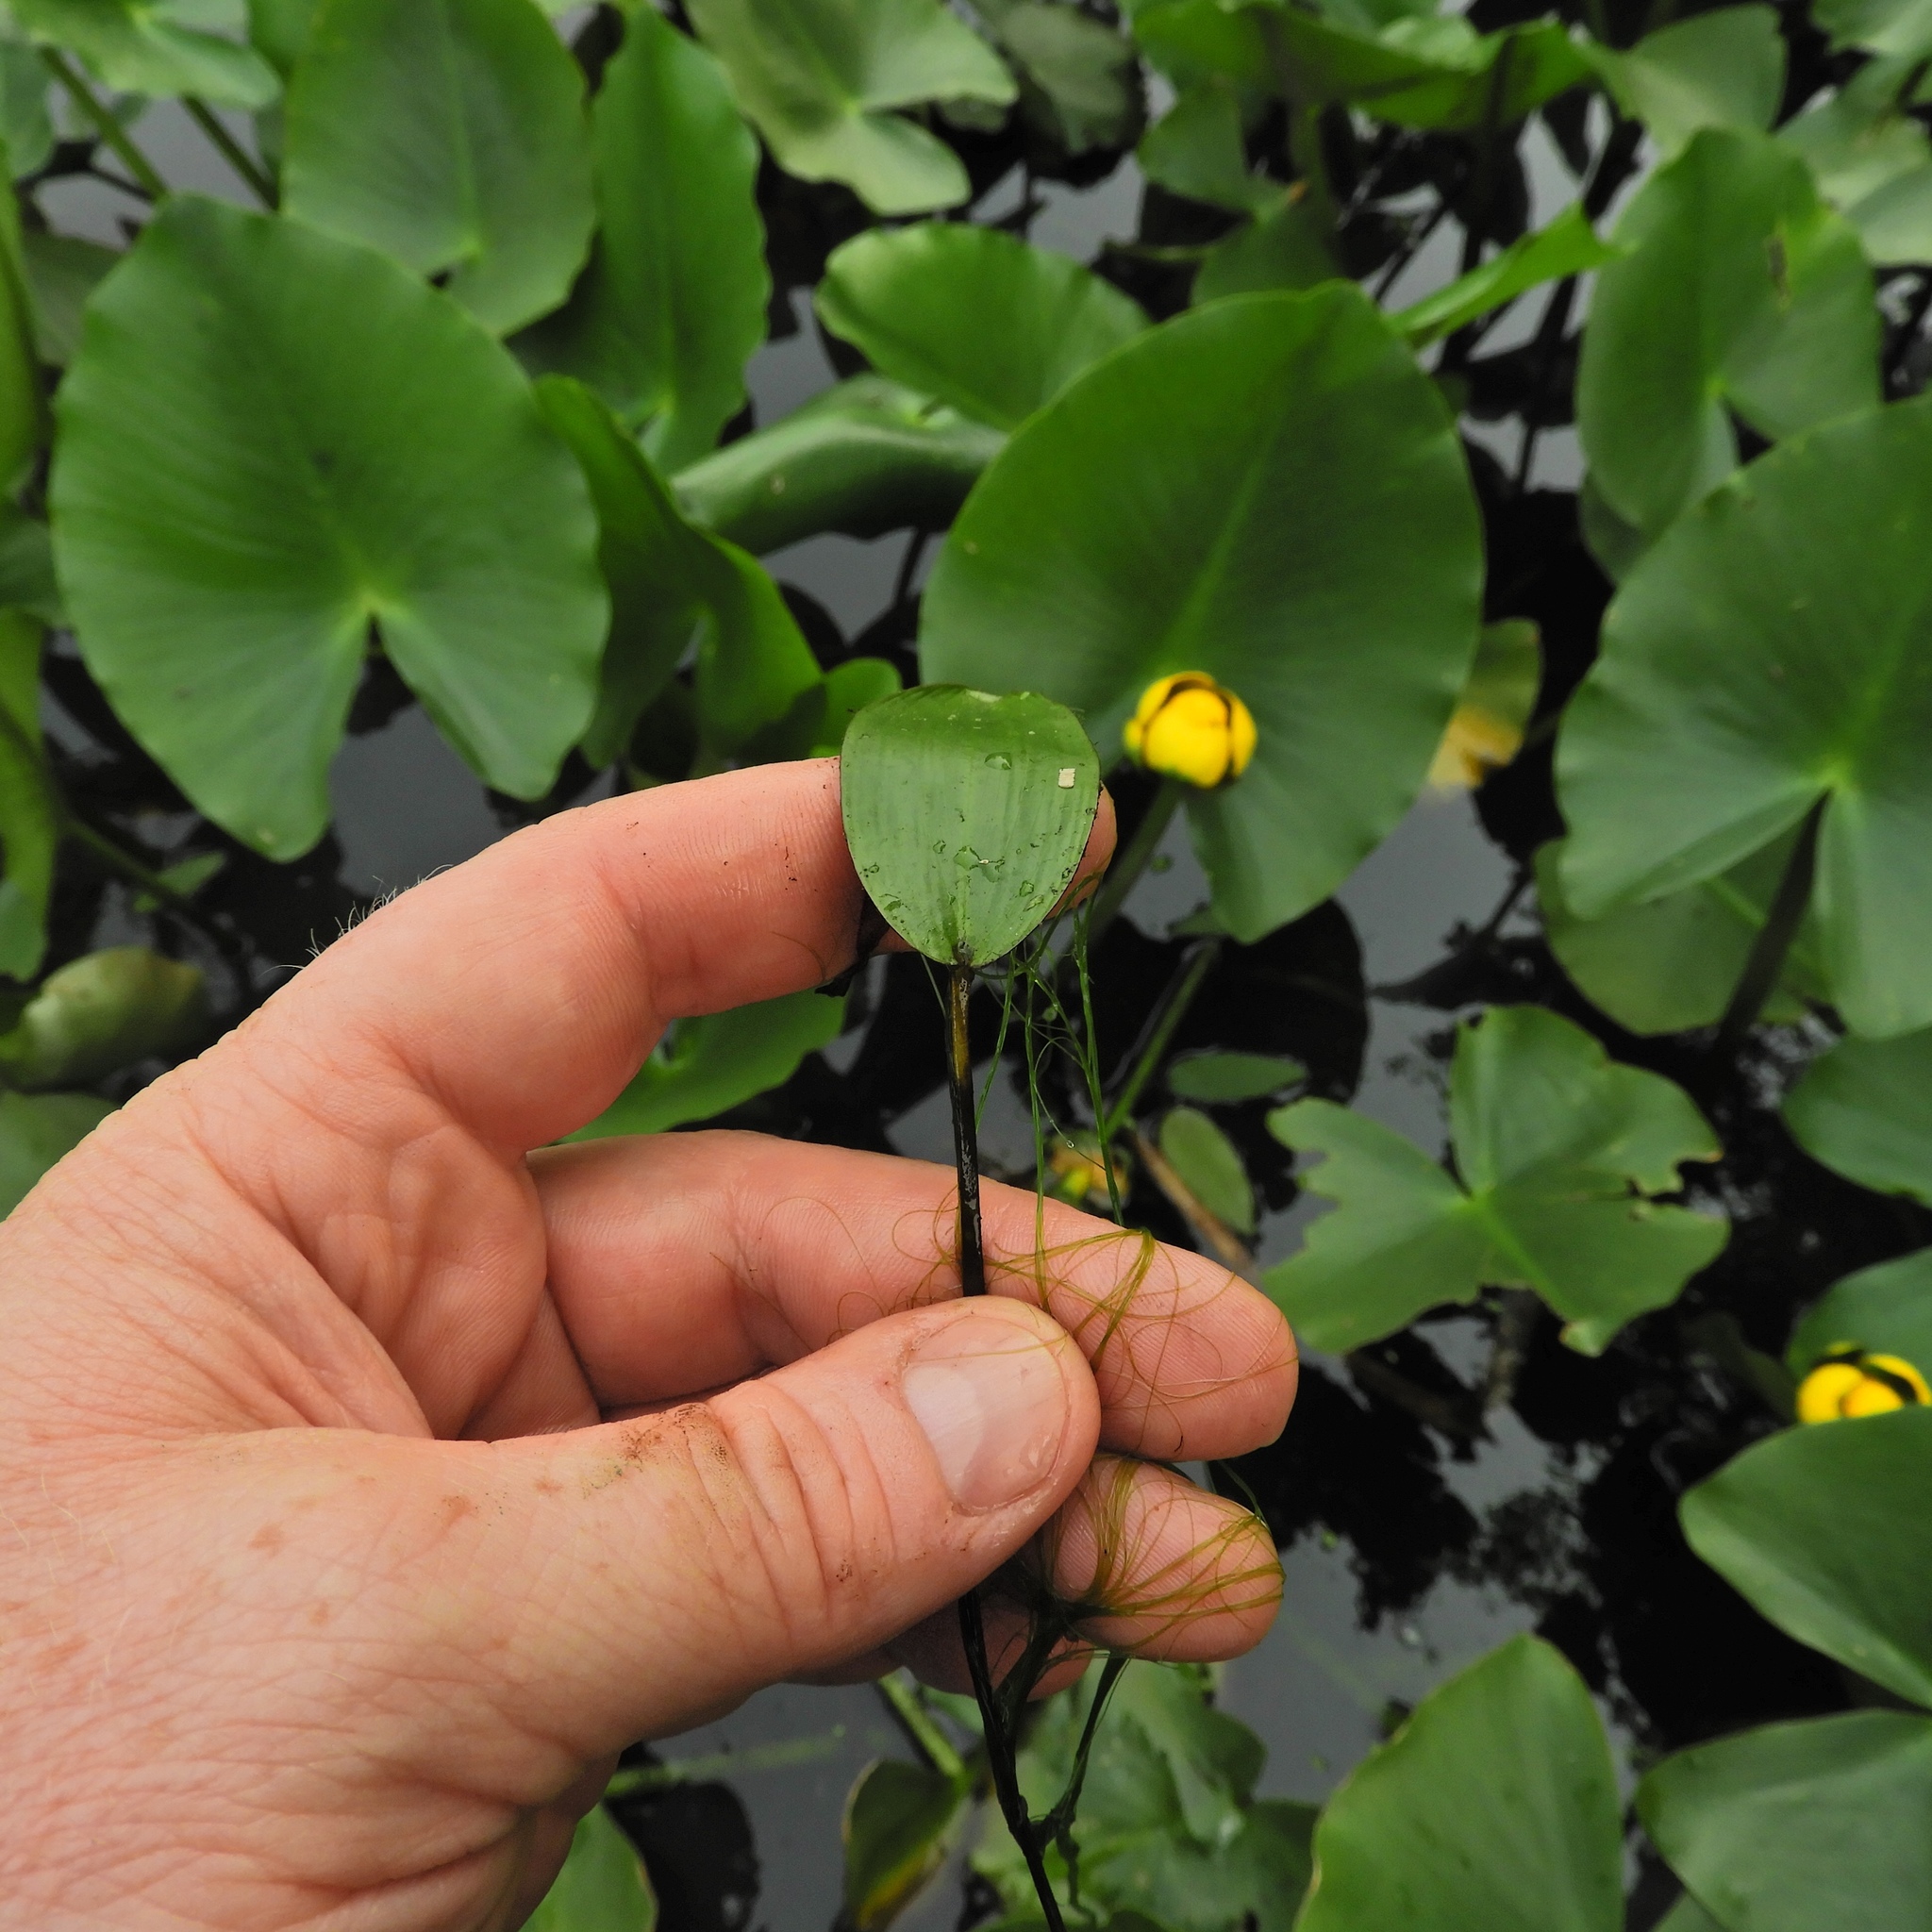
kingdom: Plantae
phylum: Tracheophyta
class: Liliopsida
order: Alismatales
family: Potamogetonaceae
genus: Potamogeton
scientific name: Potamogeton natans
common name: Broad-leaved pondweed
